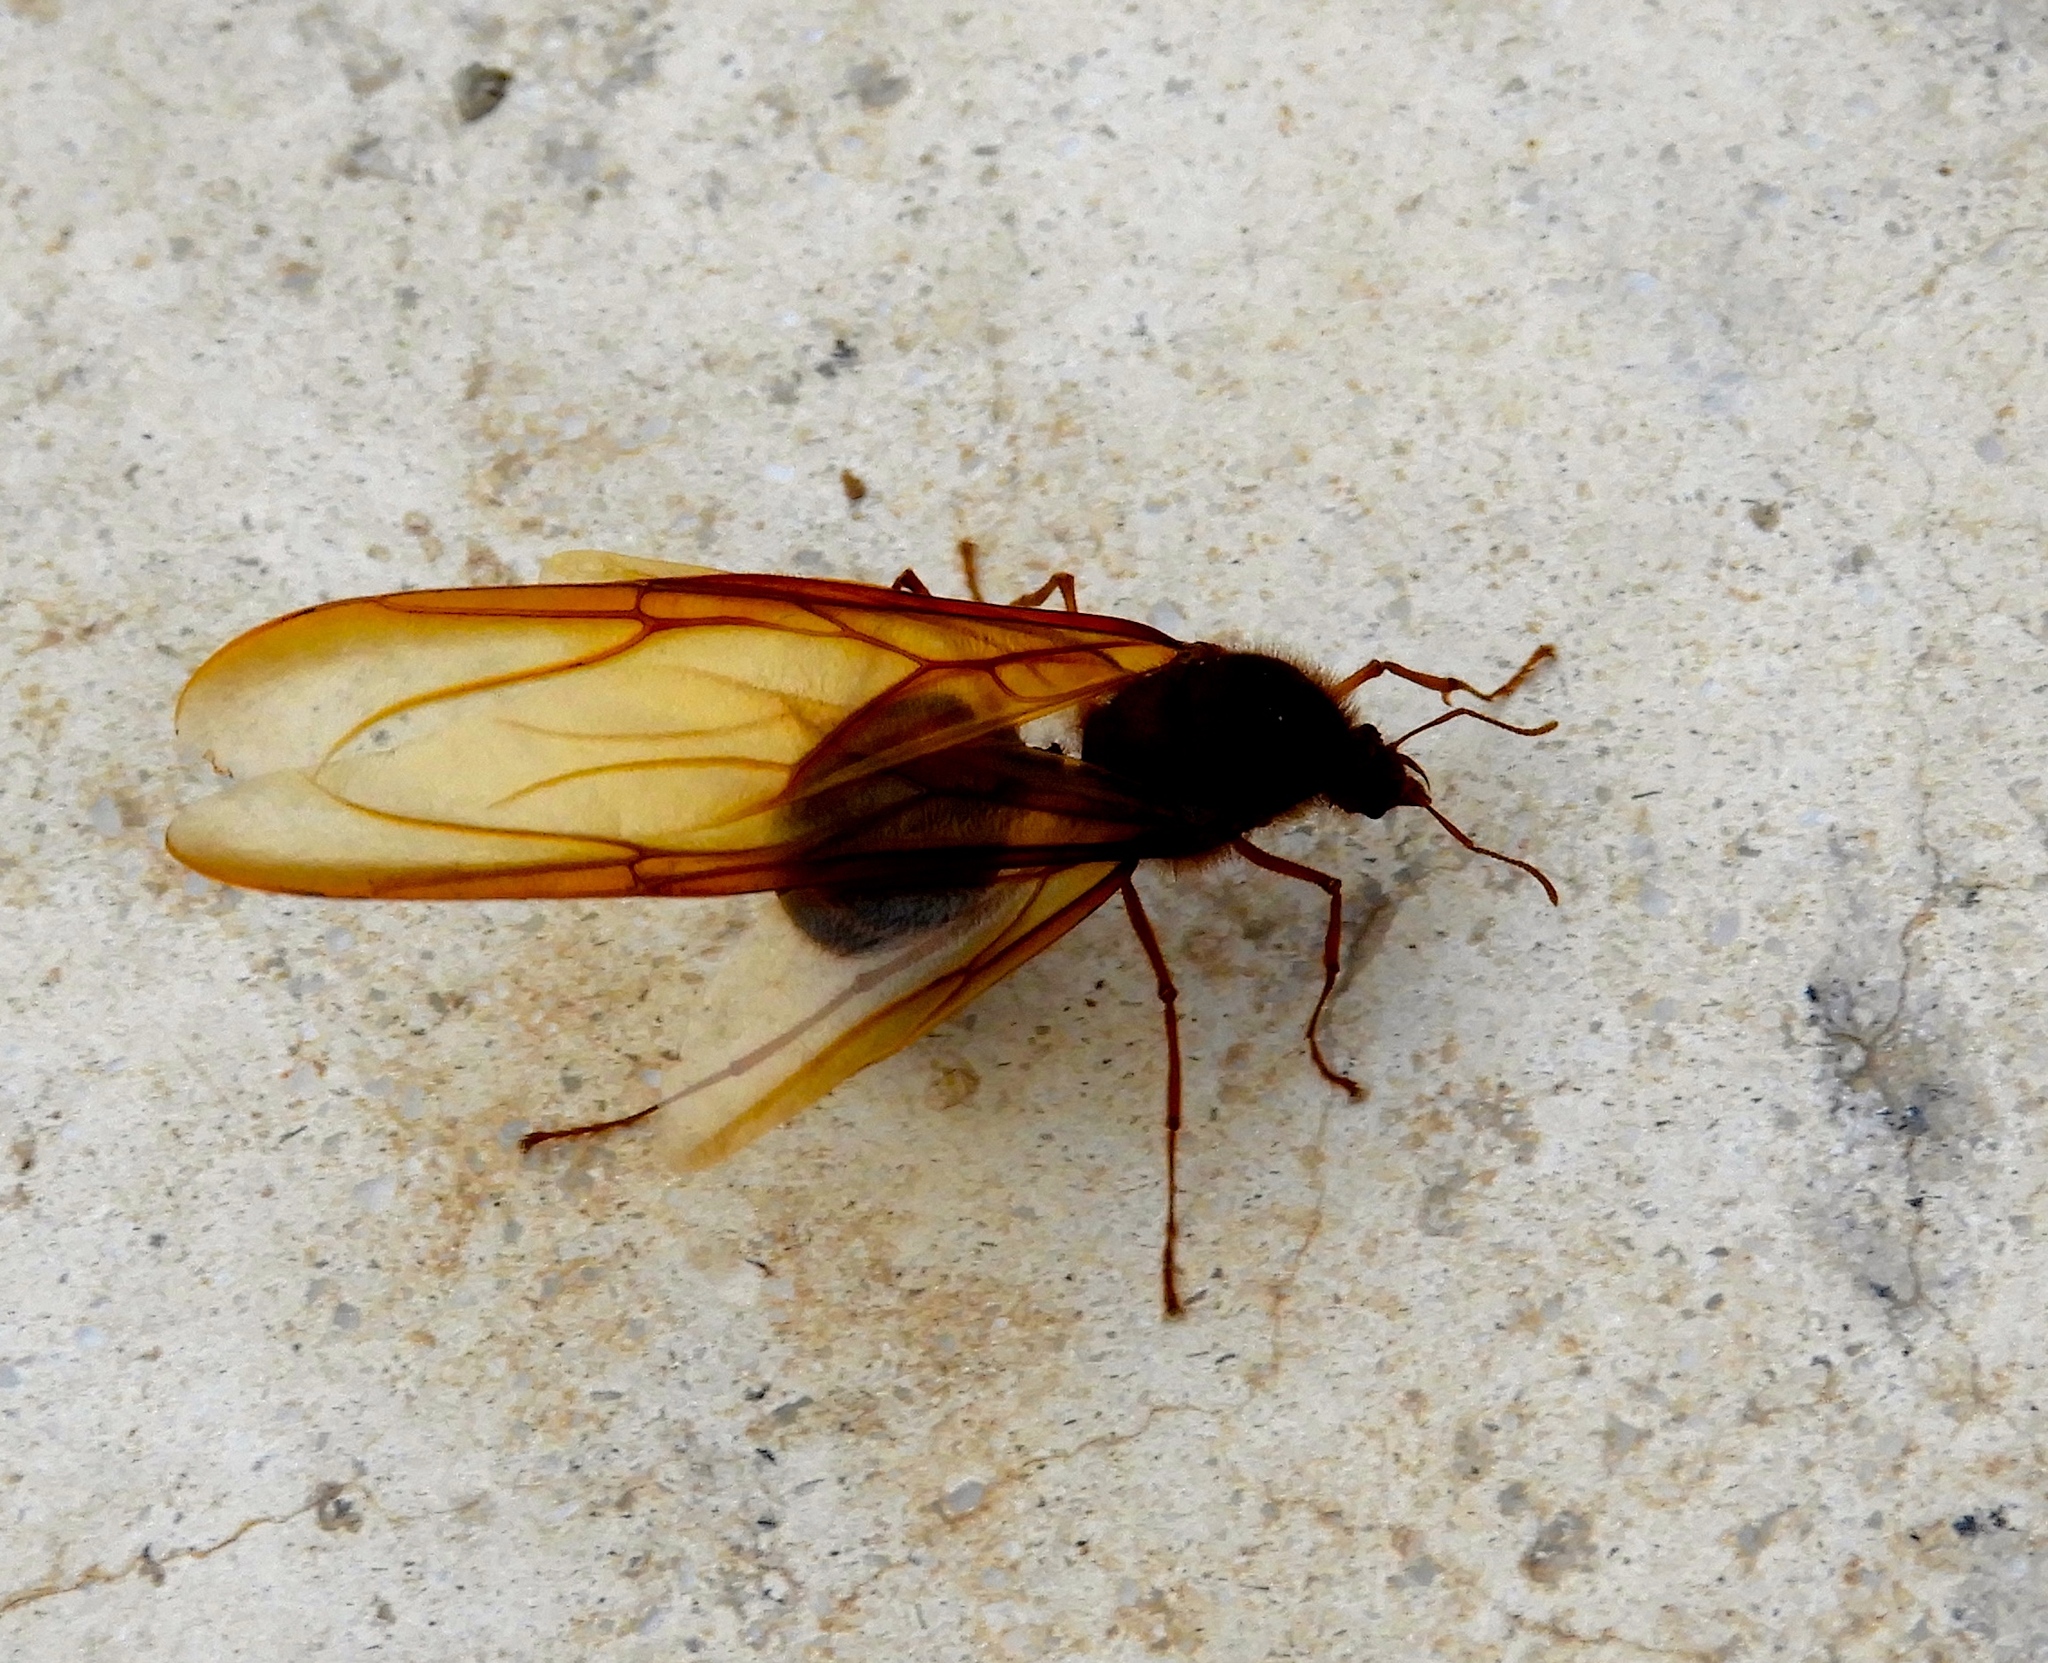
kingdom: Animalia
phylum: Arthropoda
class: Insecta
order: Hymenoptera
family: Formicidae
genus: Atta
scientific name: Atta mexicana
